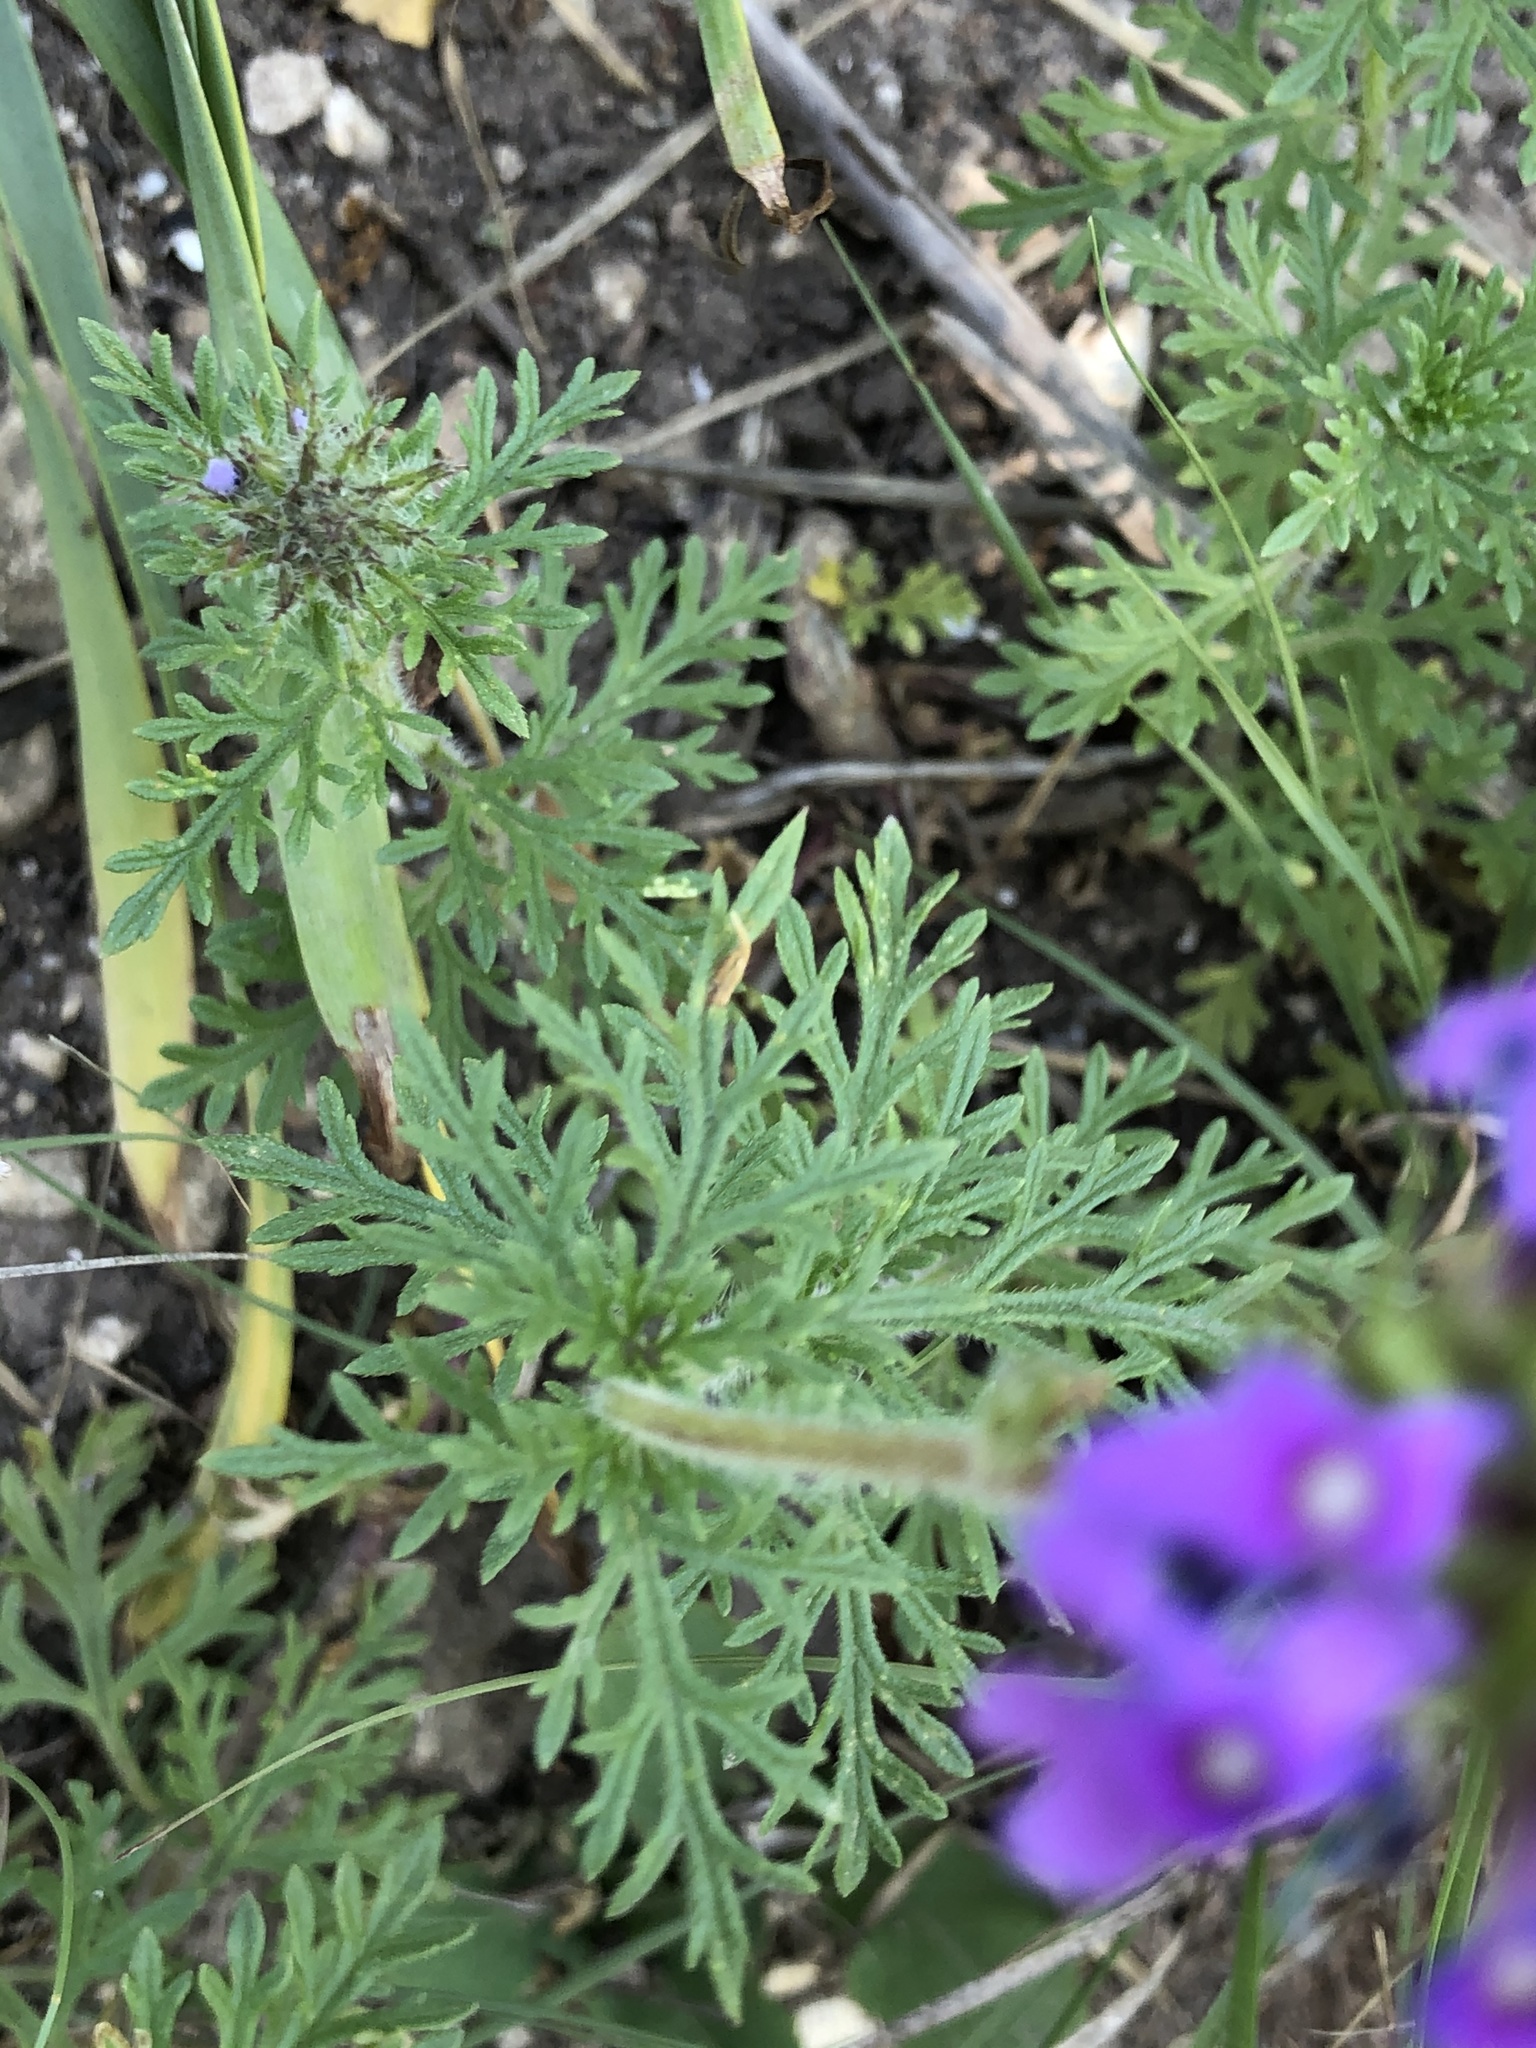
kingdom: Plantae
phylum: Tracheophyta
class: Magnoliopsida
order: Lamiales
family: Verbenaceae
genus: Verbena
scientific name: Verbena bipinnatifida
